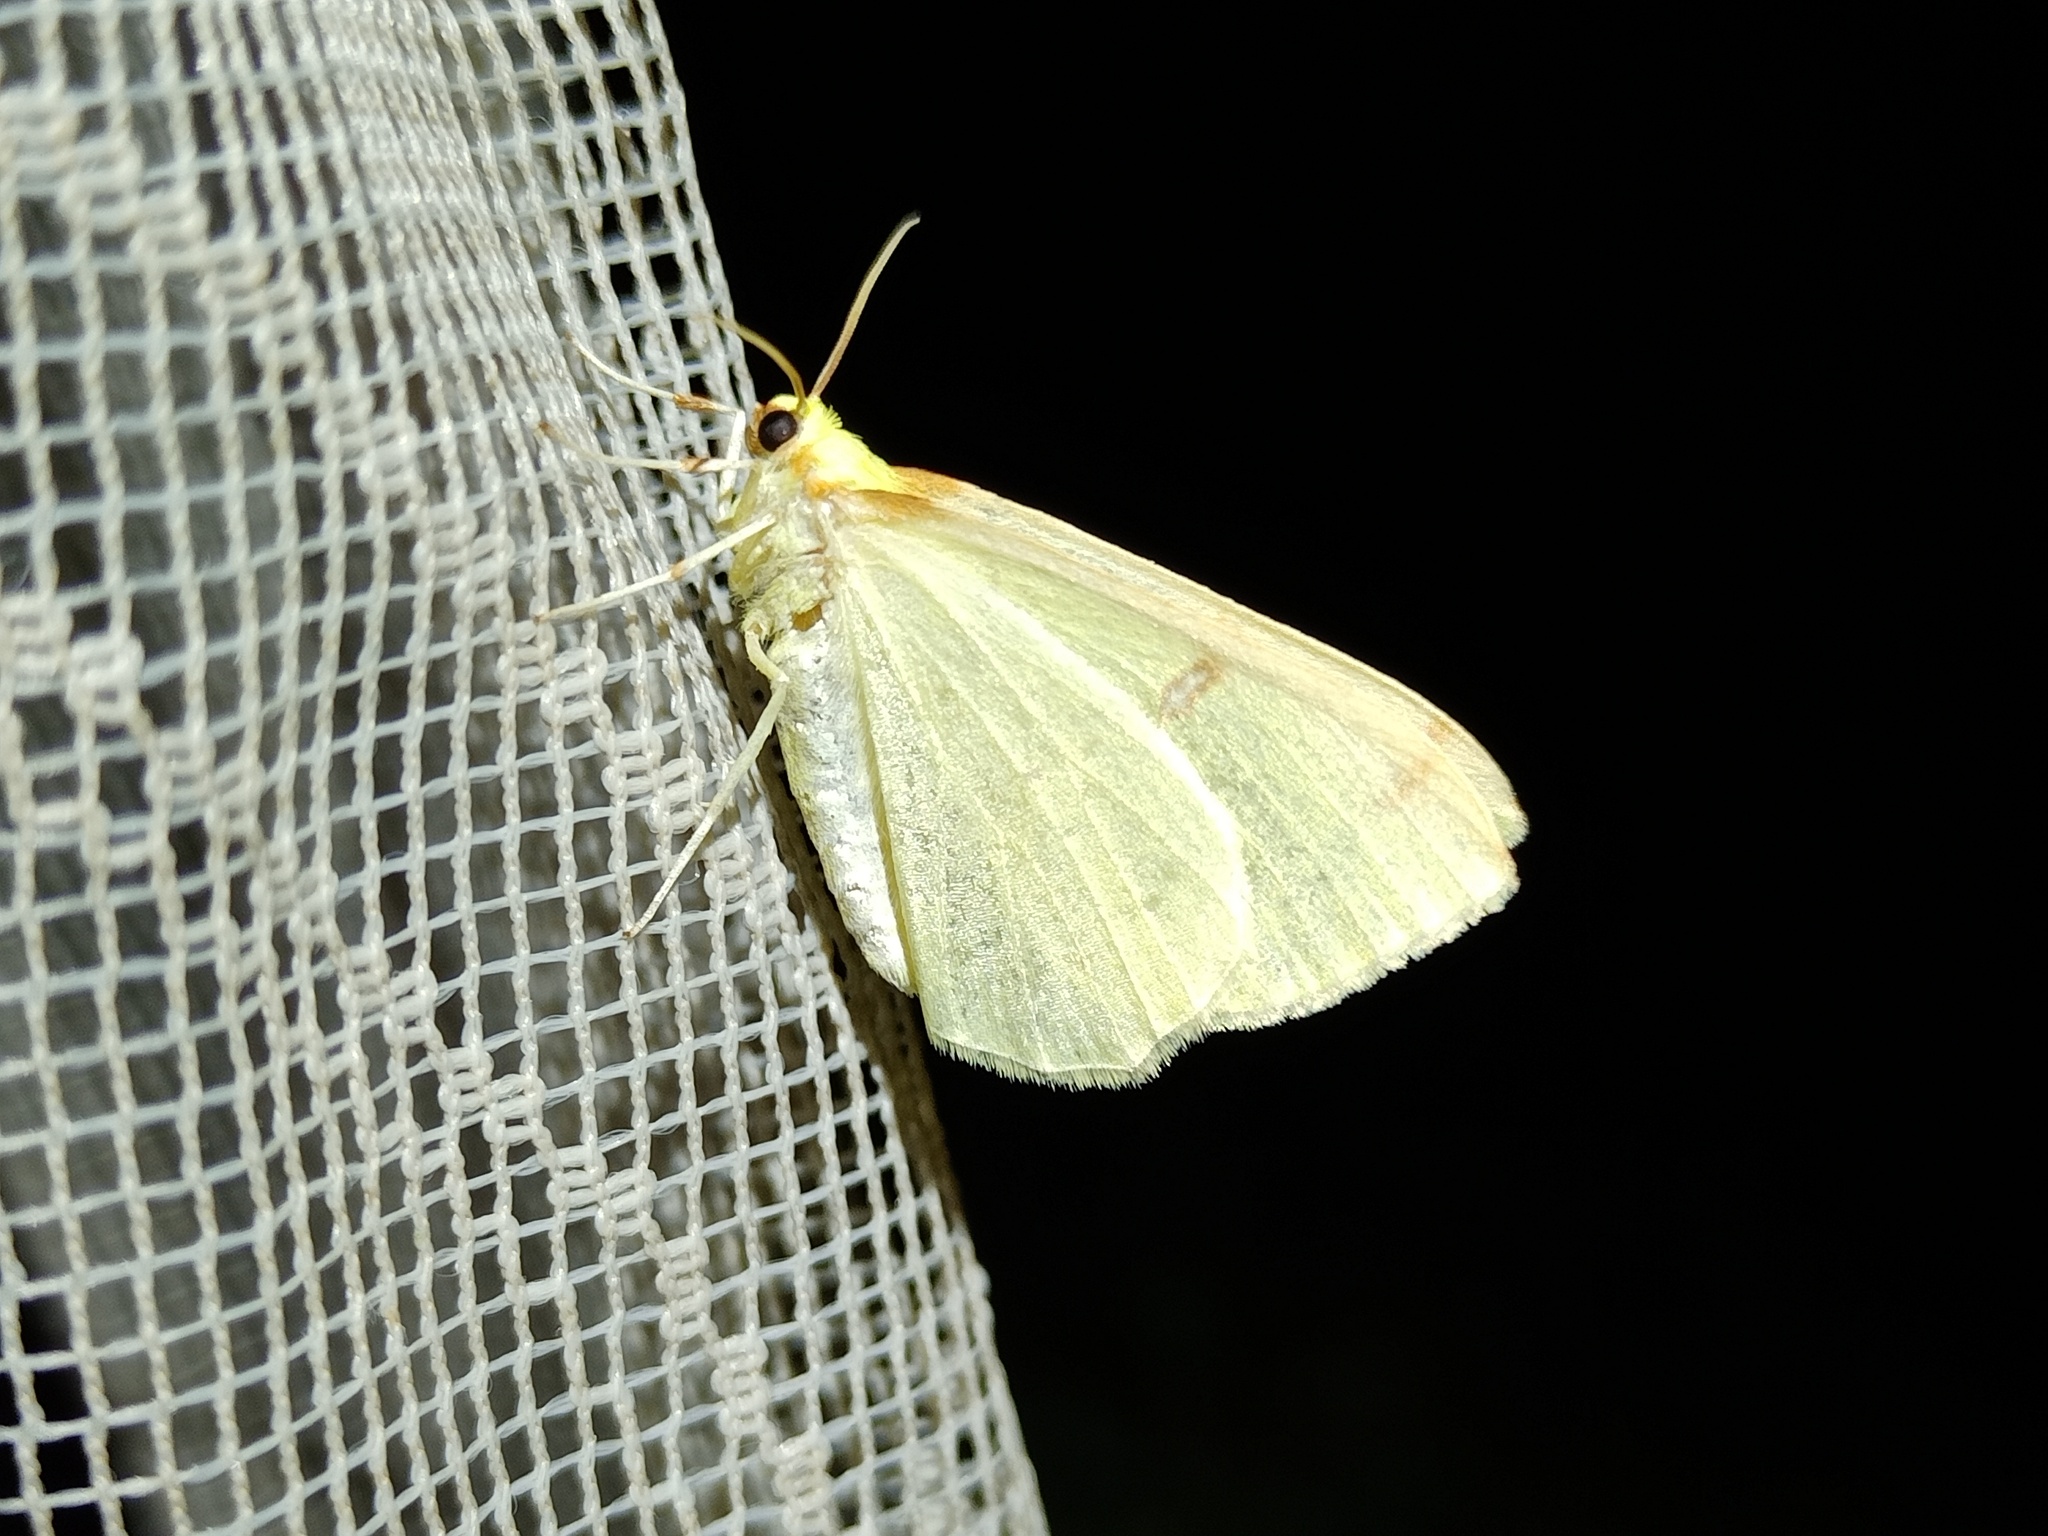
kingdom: Animalia
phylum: Arthropoda
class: Insecta
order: Lepidoptera
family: Geometridae
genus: Opisthograptis
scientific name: Opisthograptis luteolata
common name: Brimstone moth
